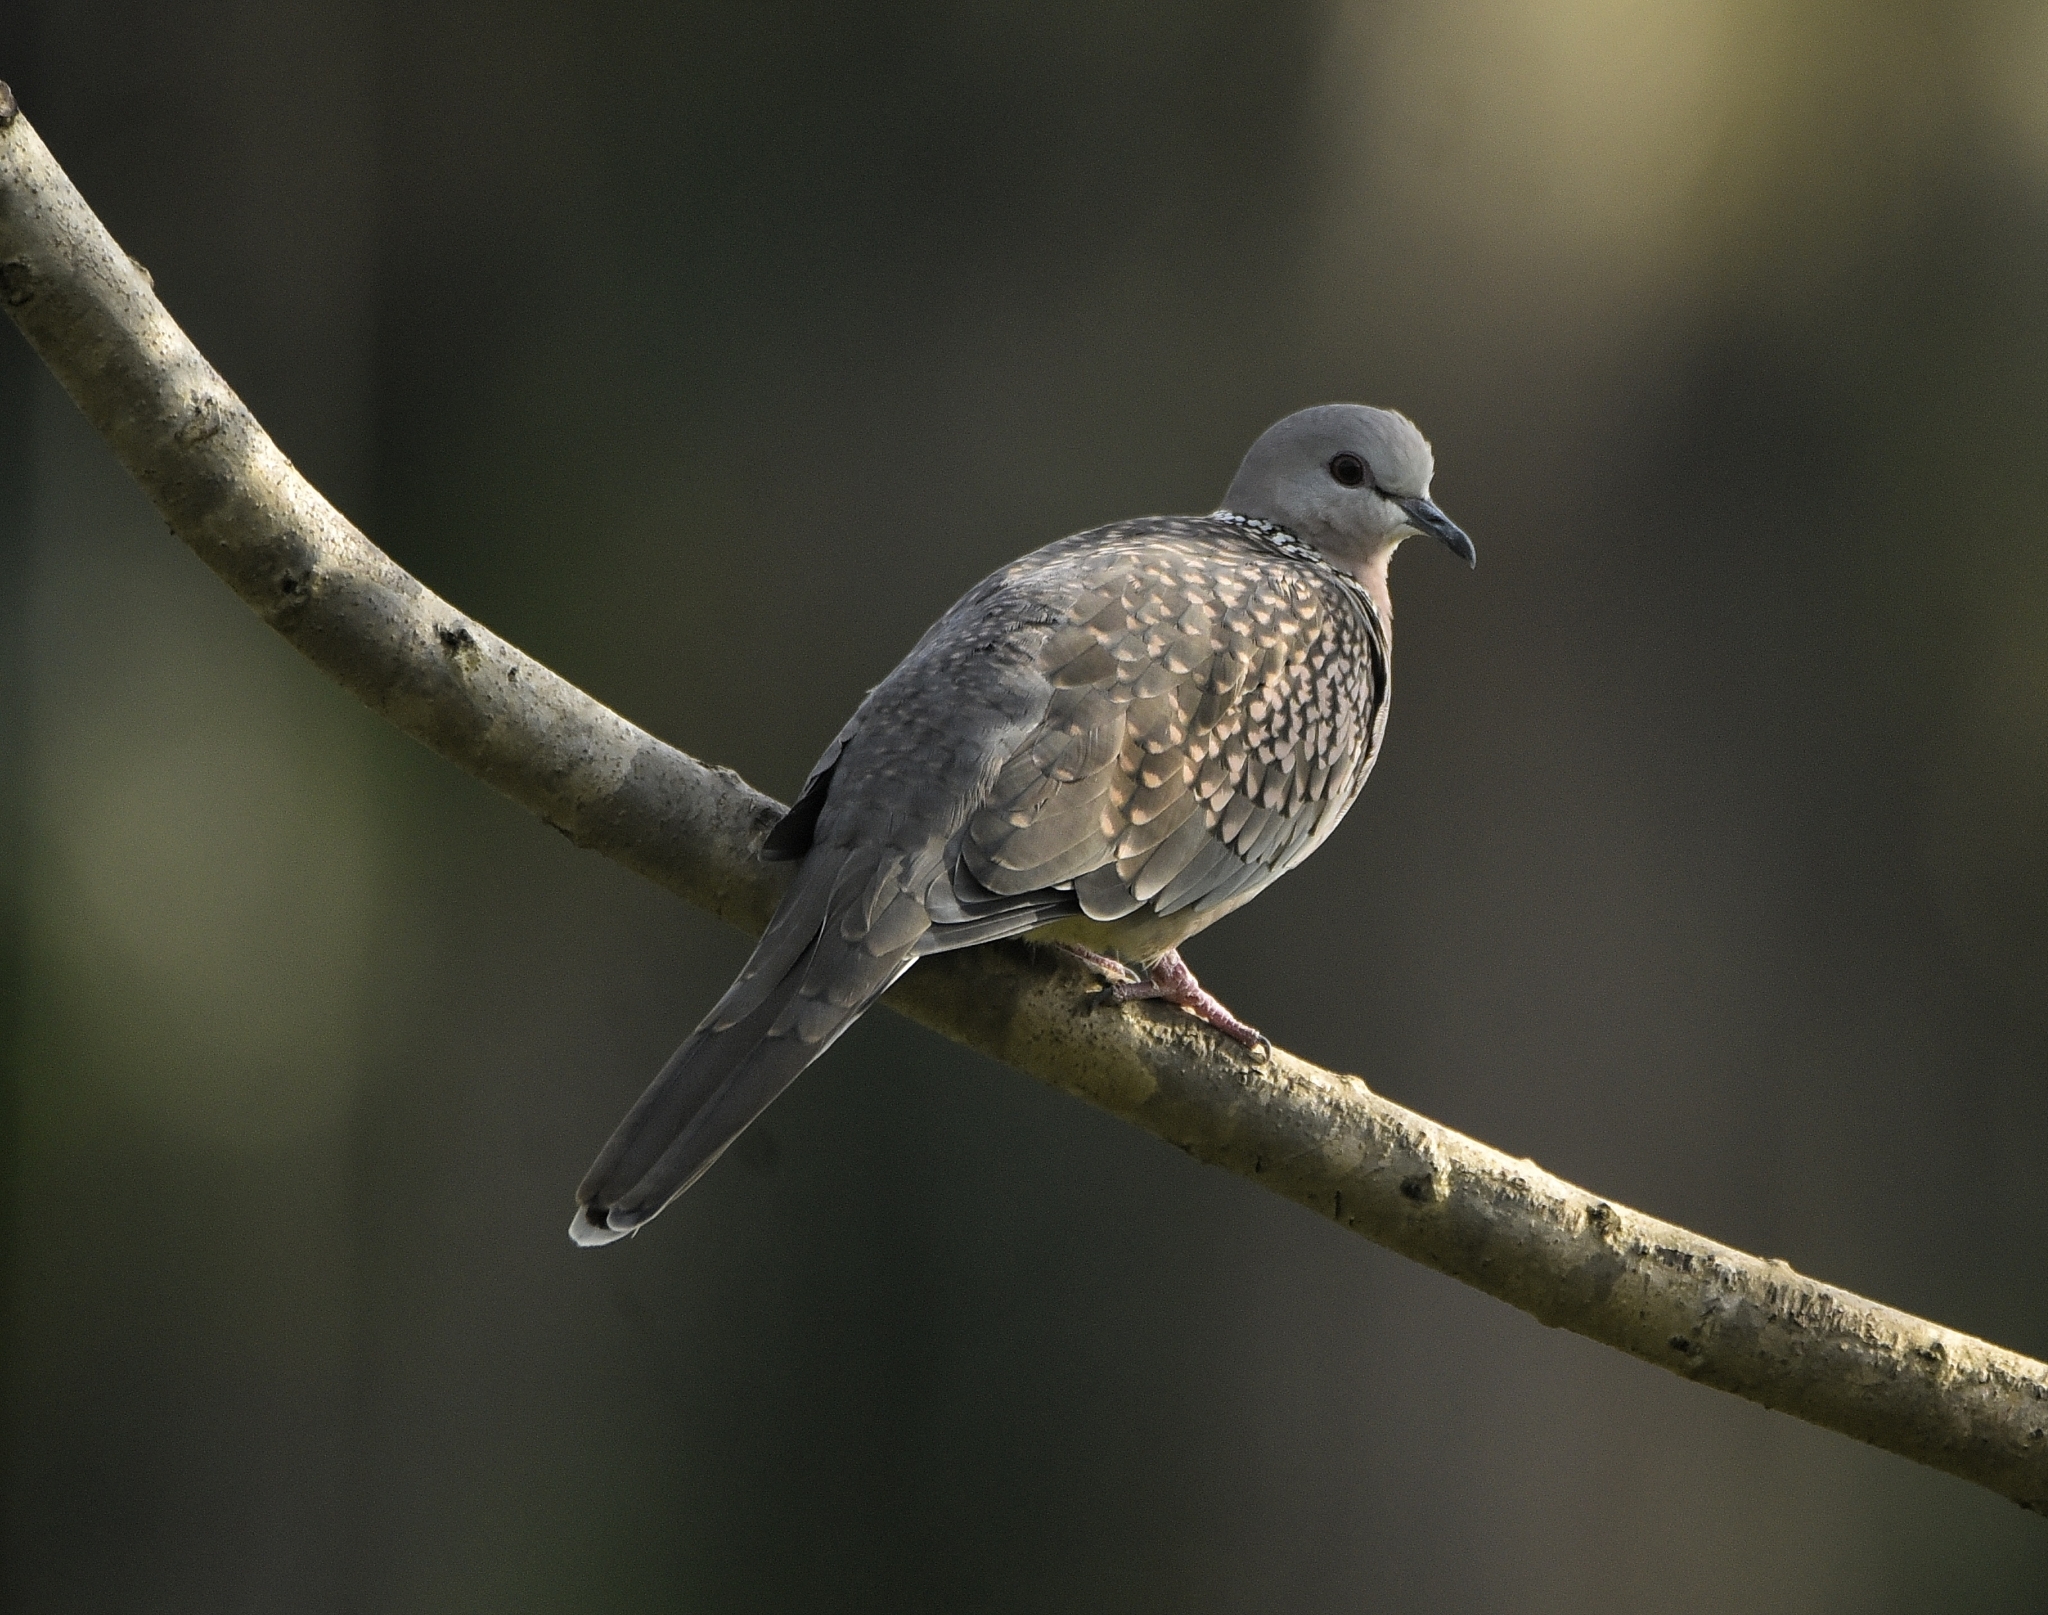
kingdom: Animalia
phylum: Chordata
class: Aves
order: Columbiformes
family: Columbidae
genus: Spilopelia
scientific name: Spilopelia chinensis
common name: Spotted dove
